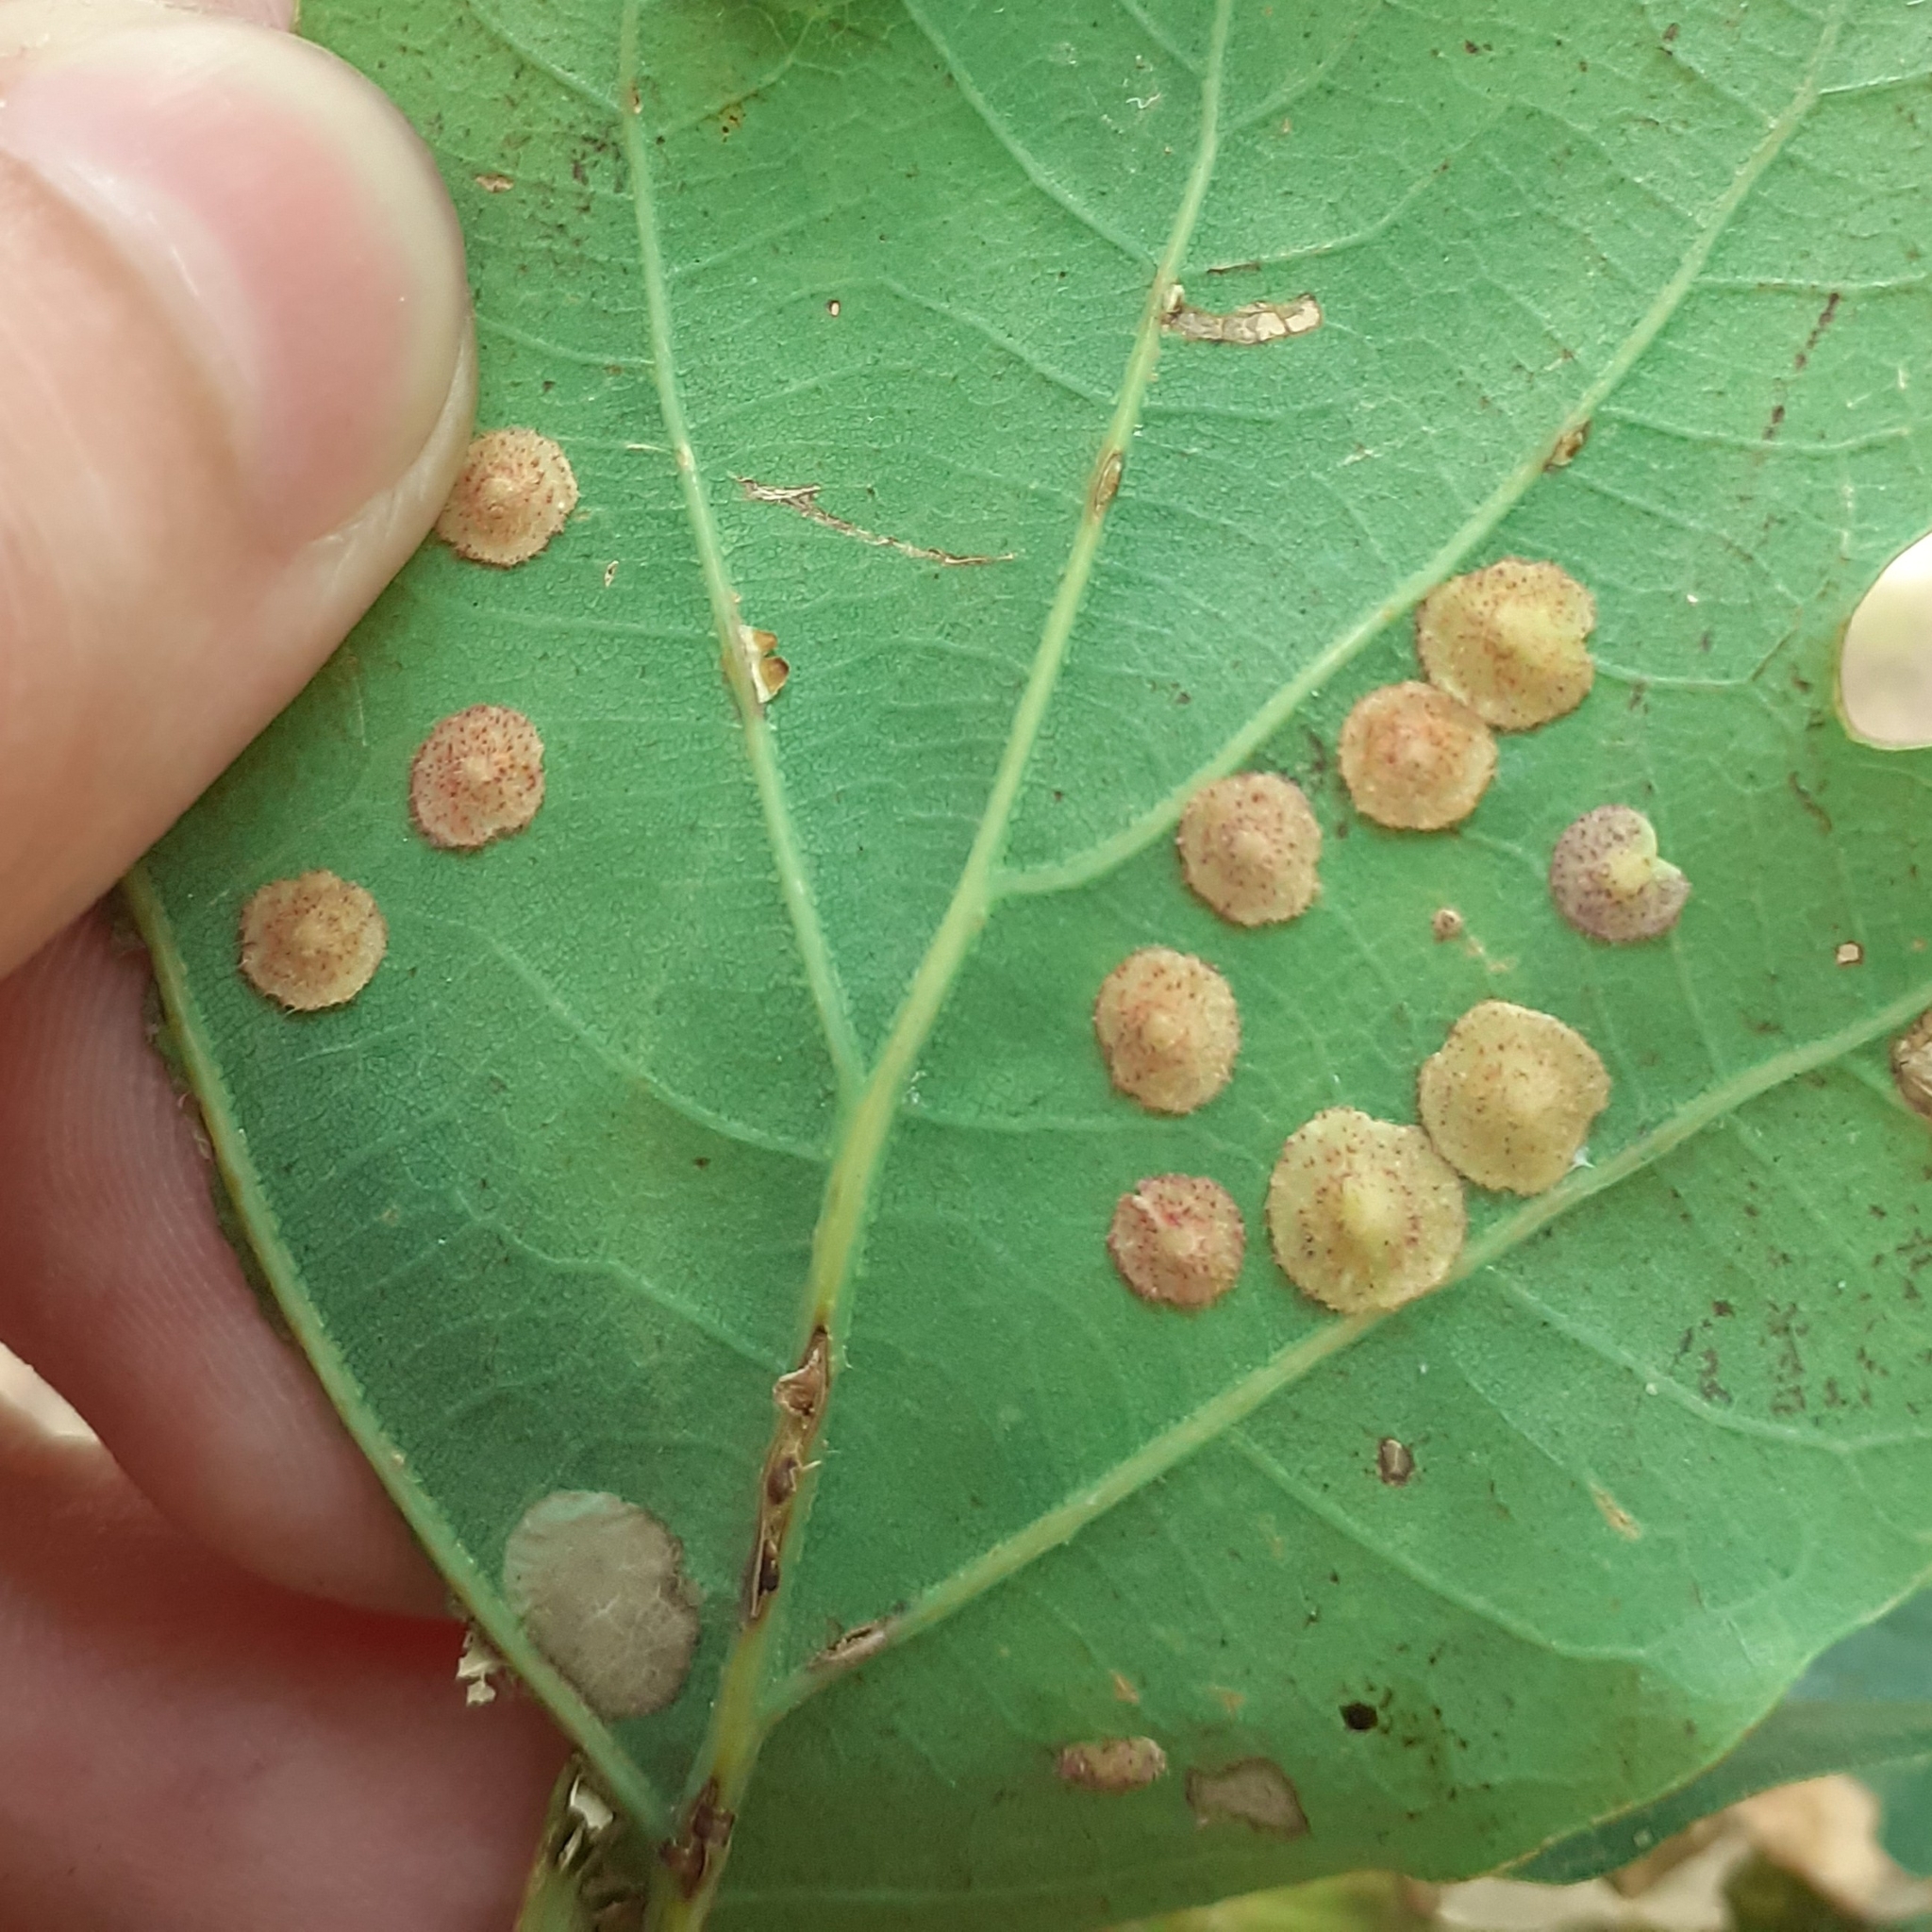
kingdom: Animalia
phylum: Arthropoda
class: Insecta
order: Hymenoptera
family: Cynipidae
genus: Neuroterus
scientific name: Neuroterus quercusbaccarum
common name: Common spangle gall
